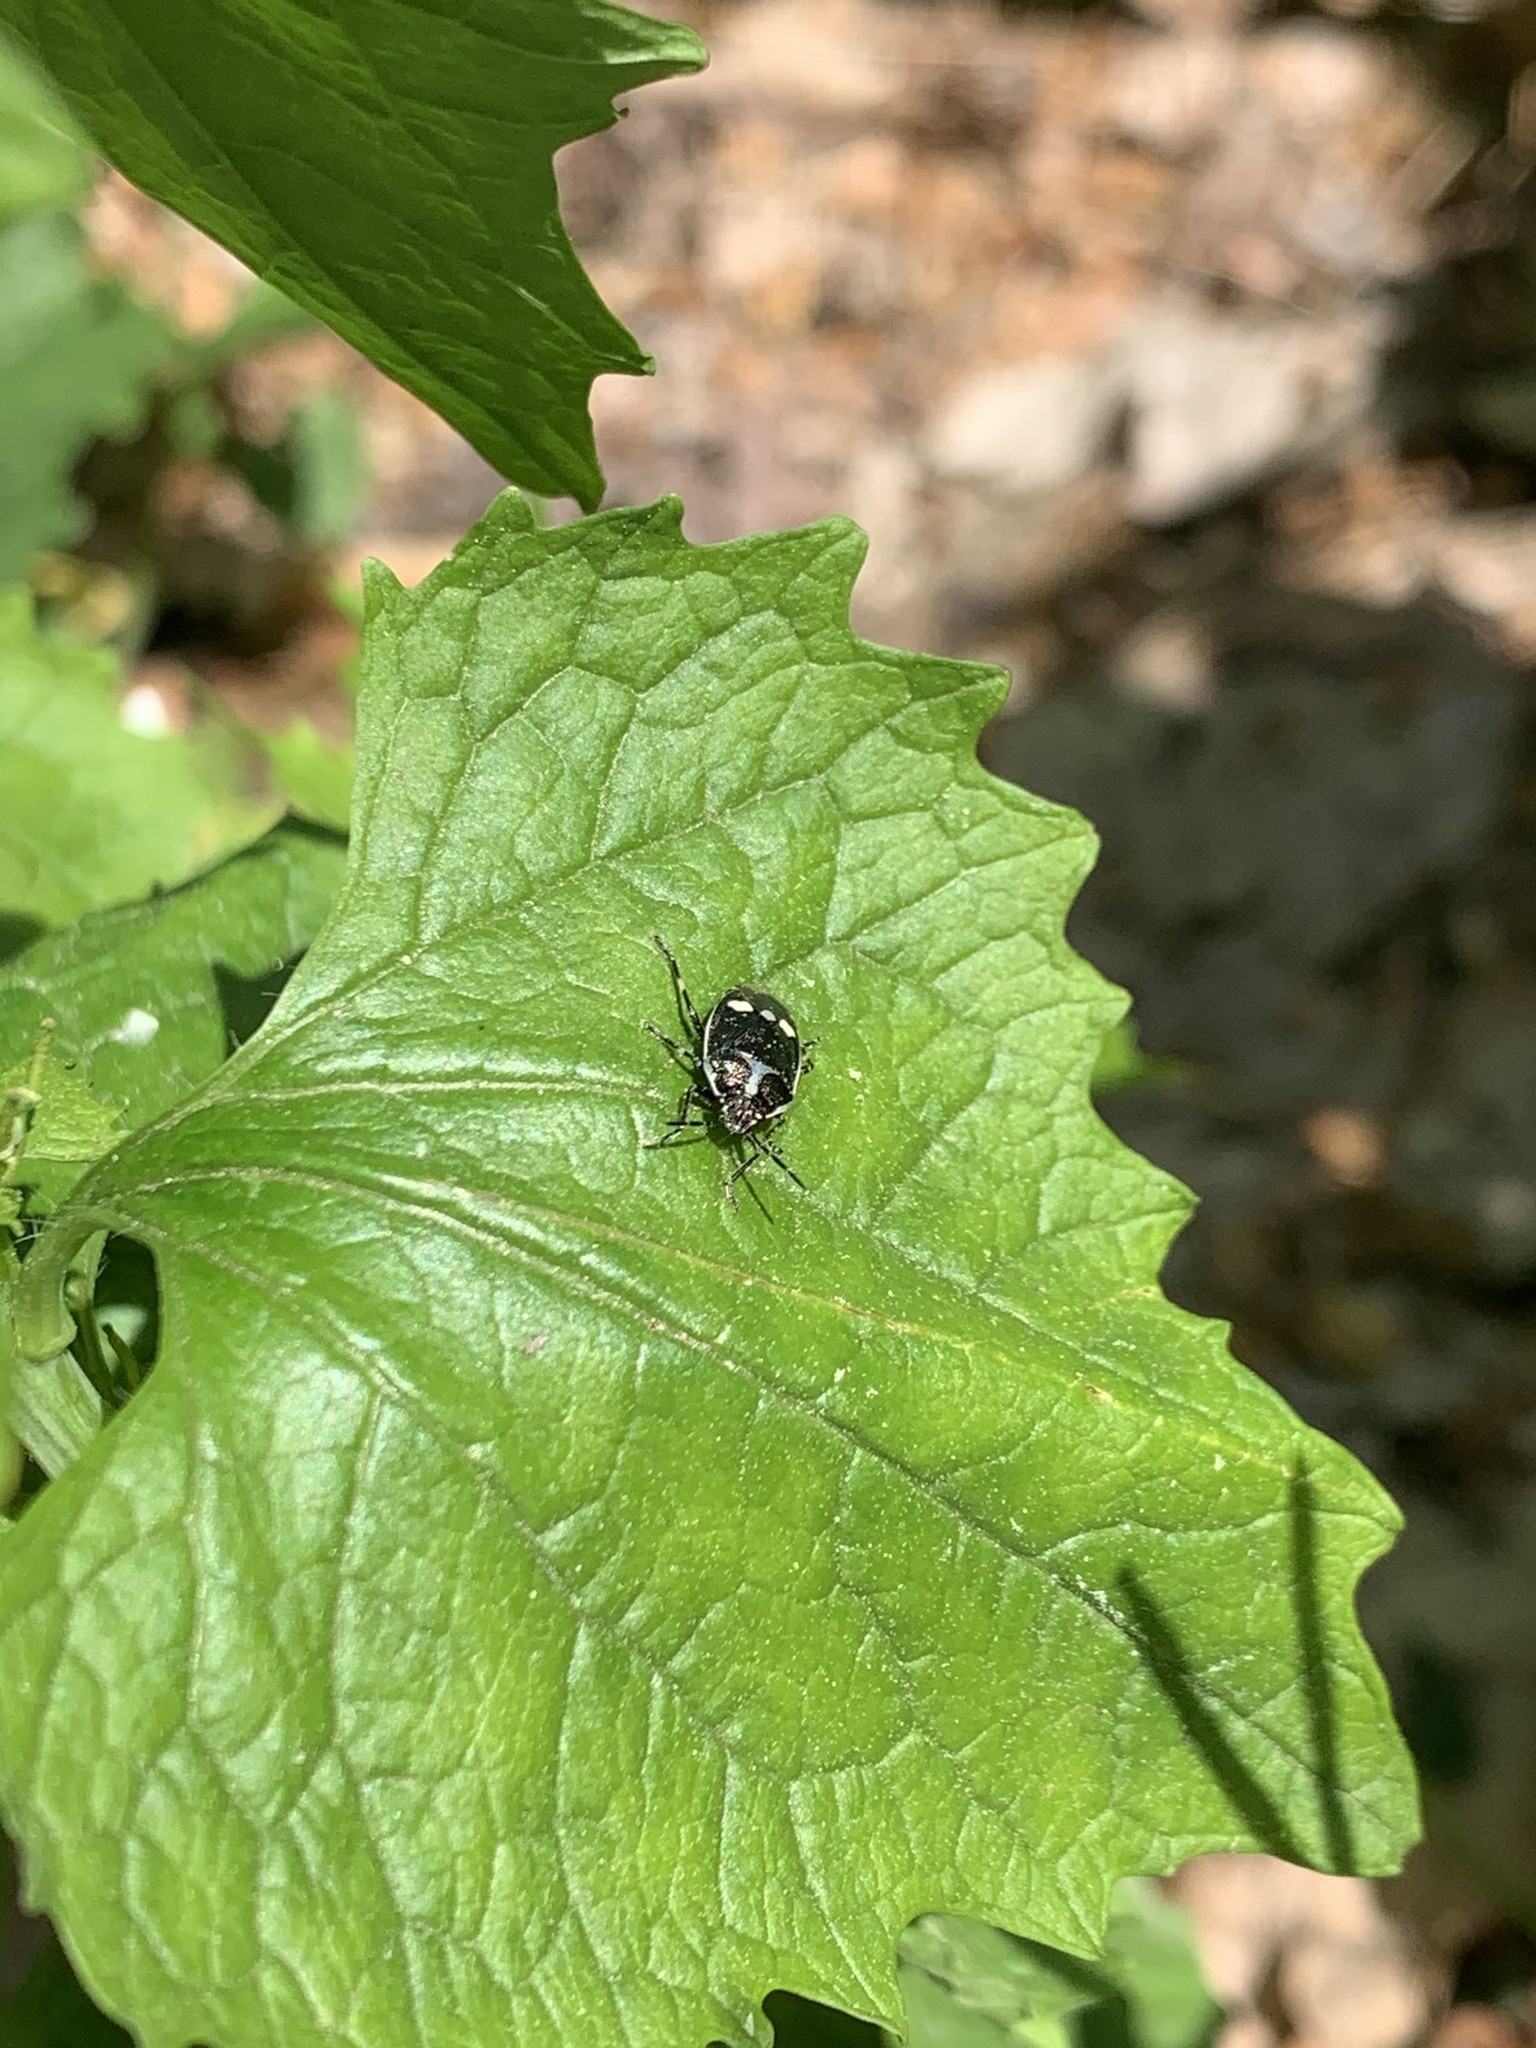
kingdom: Animalia
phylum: Arthropoda
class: Insecta
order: Hemiptera
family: Pentatomidae
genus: Eurydema
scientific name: Eurydema oleracea
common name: Cabbage bug
